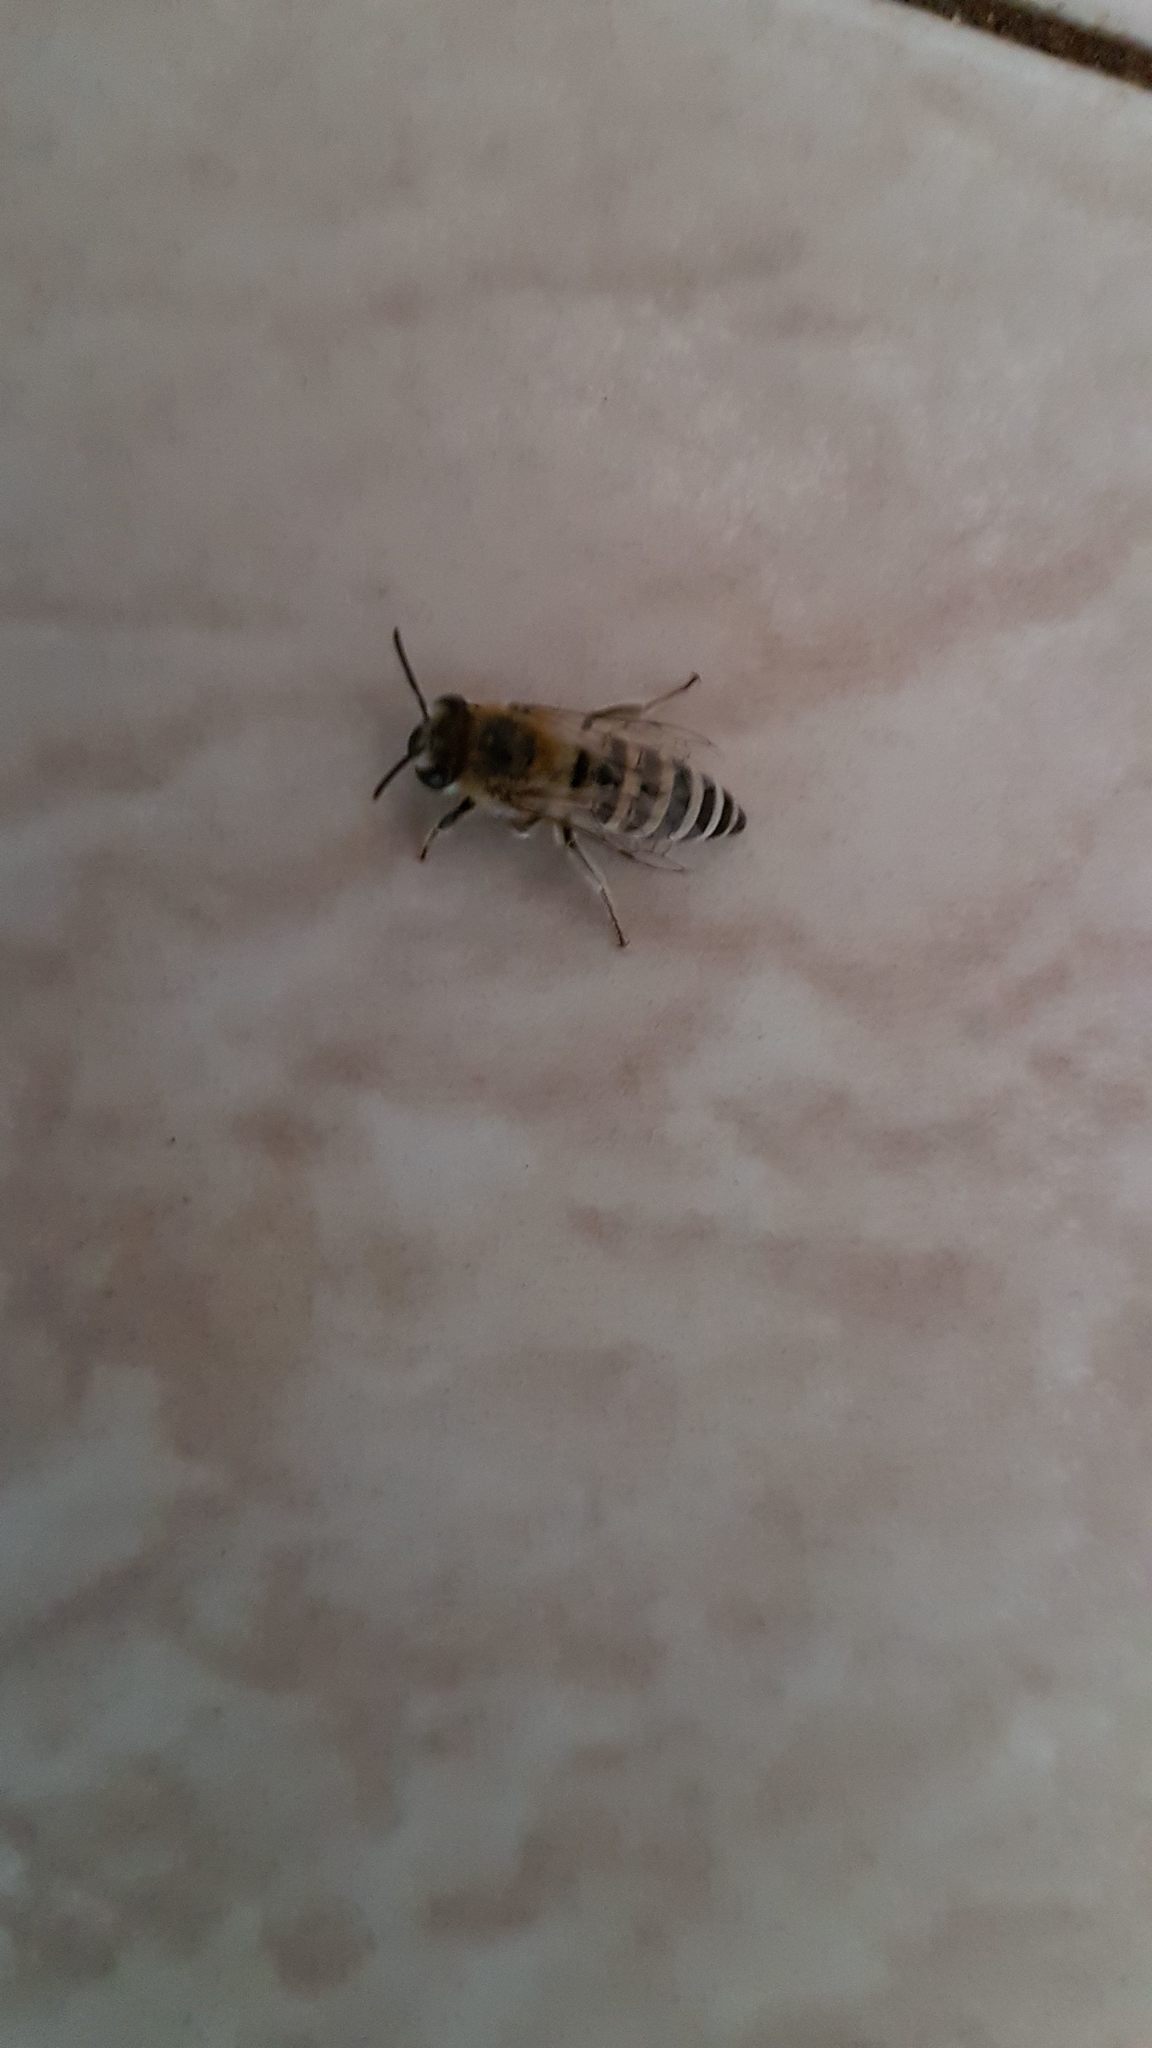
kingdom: Animalia
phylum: Arthropoda
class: Insecta
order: Hymenoptera
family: Colletidae
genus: Colletes
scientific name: Colletes perezi
